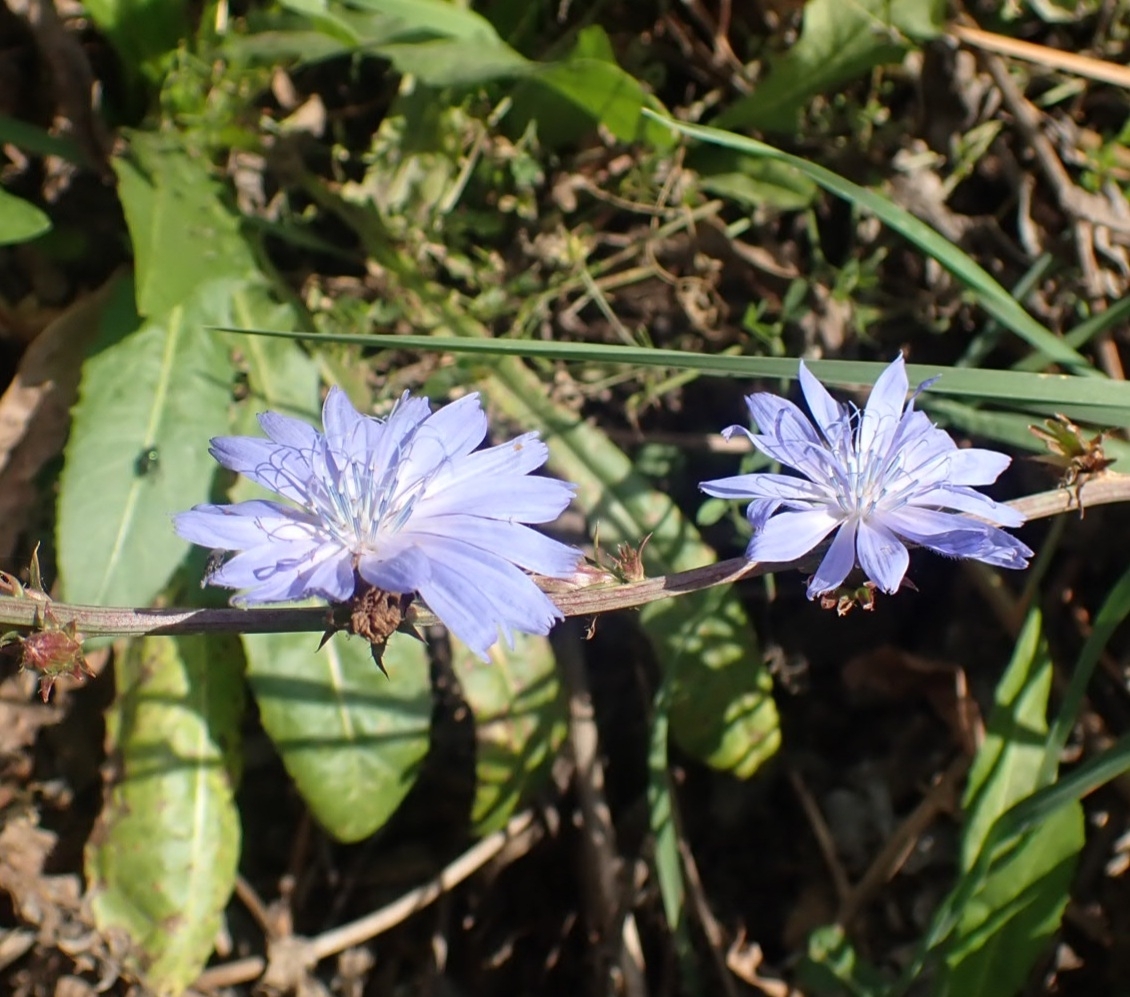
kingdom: Plantae
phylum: Tracheophyta
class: Magnoliopsida
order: Asterales
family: Asteraceae
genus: Cichorium
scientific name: Cichorium intybus
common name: Chicory
